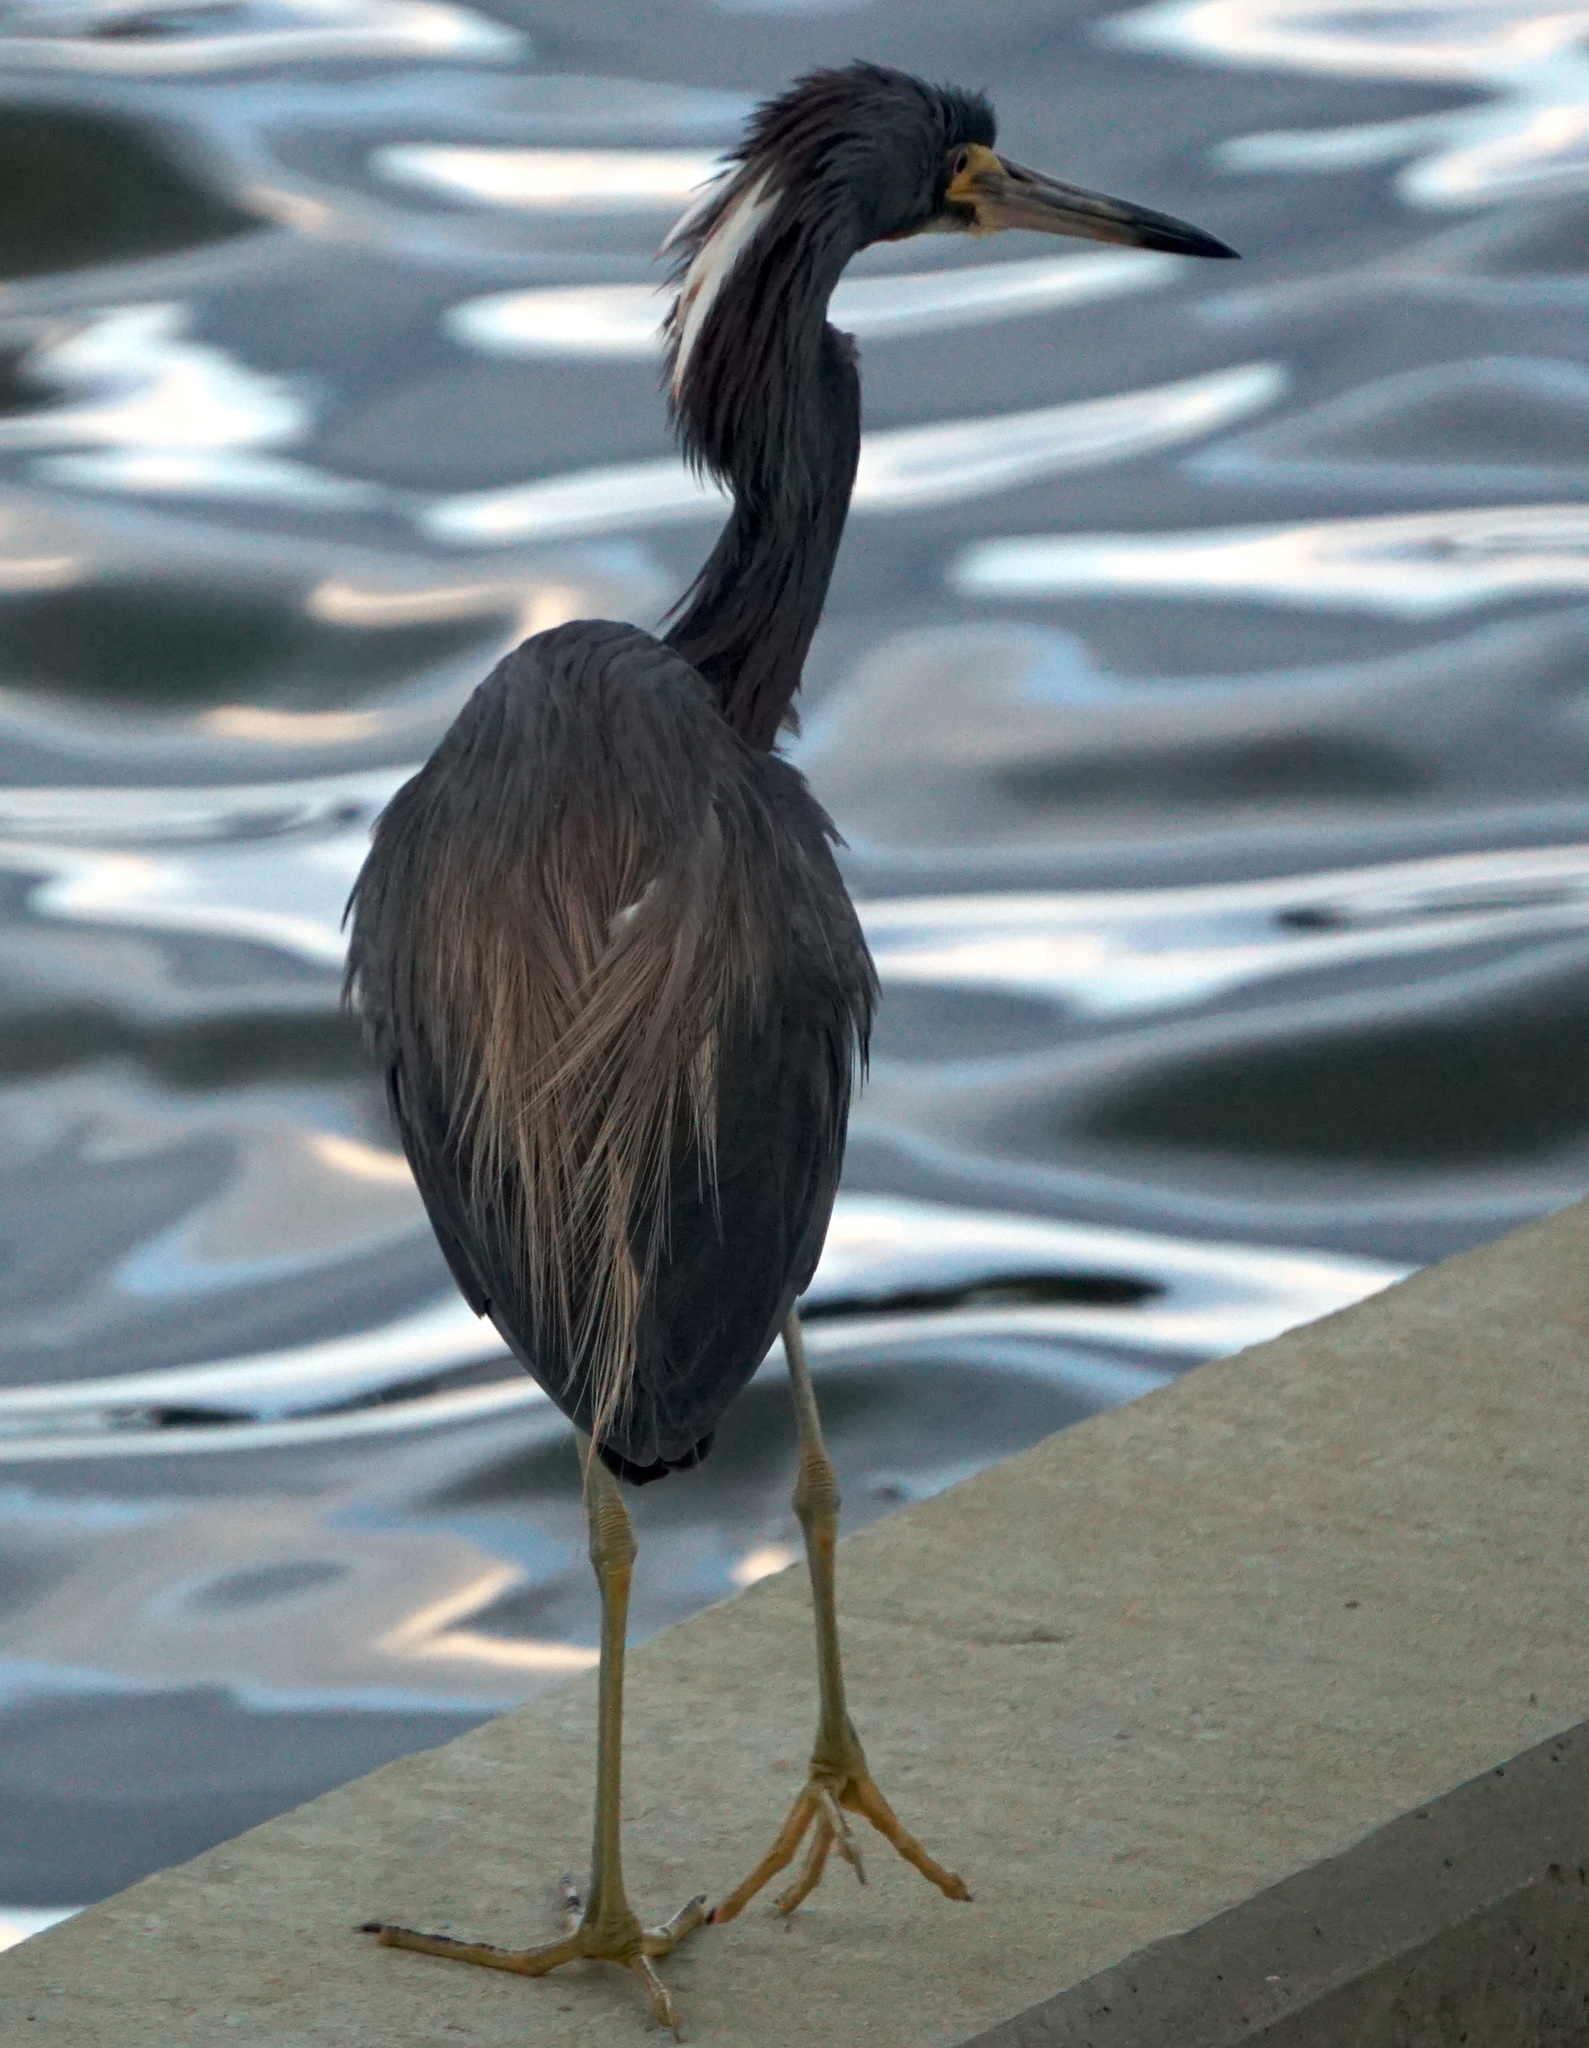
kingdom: Animalia
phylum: Chordata
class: Aves
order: Pelecaniformes
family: Ardeidae
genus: Egretta
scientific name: Egretta tricolor
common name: Tricolored heron
